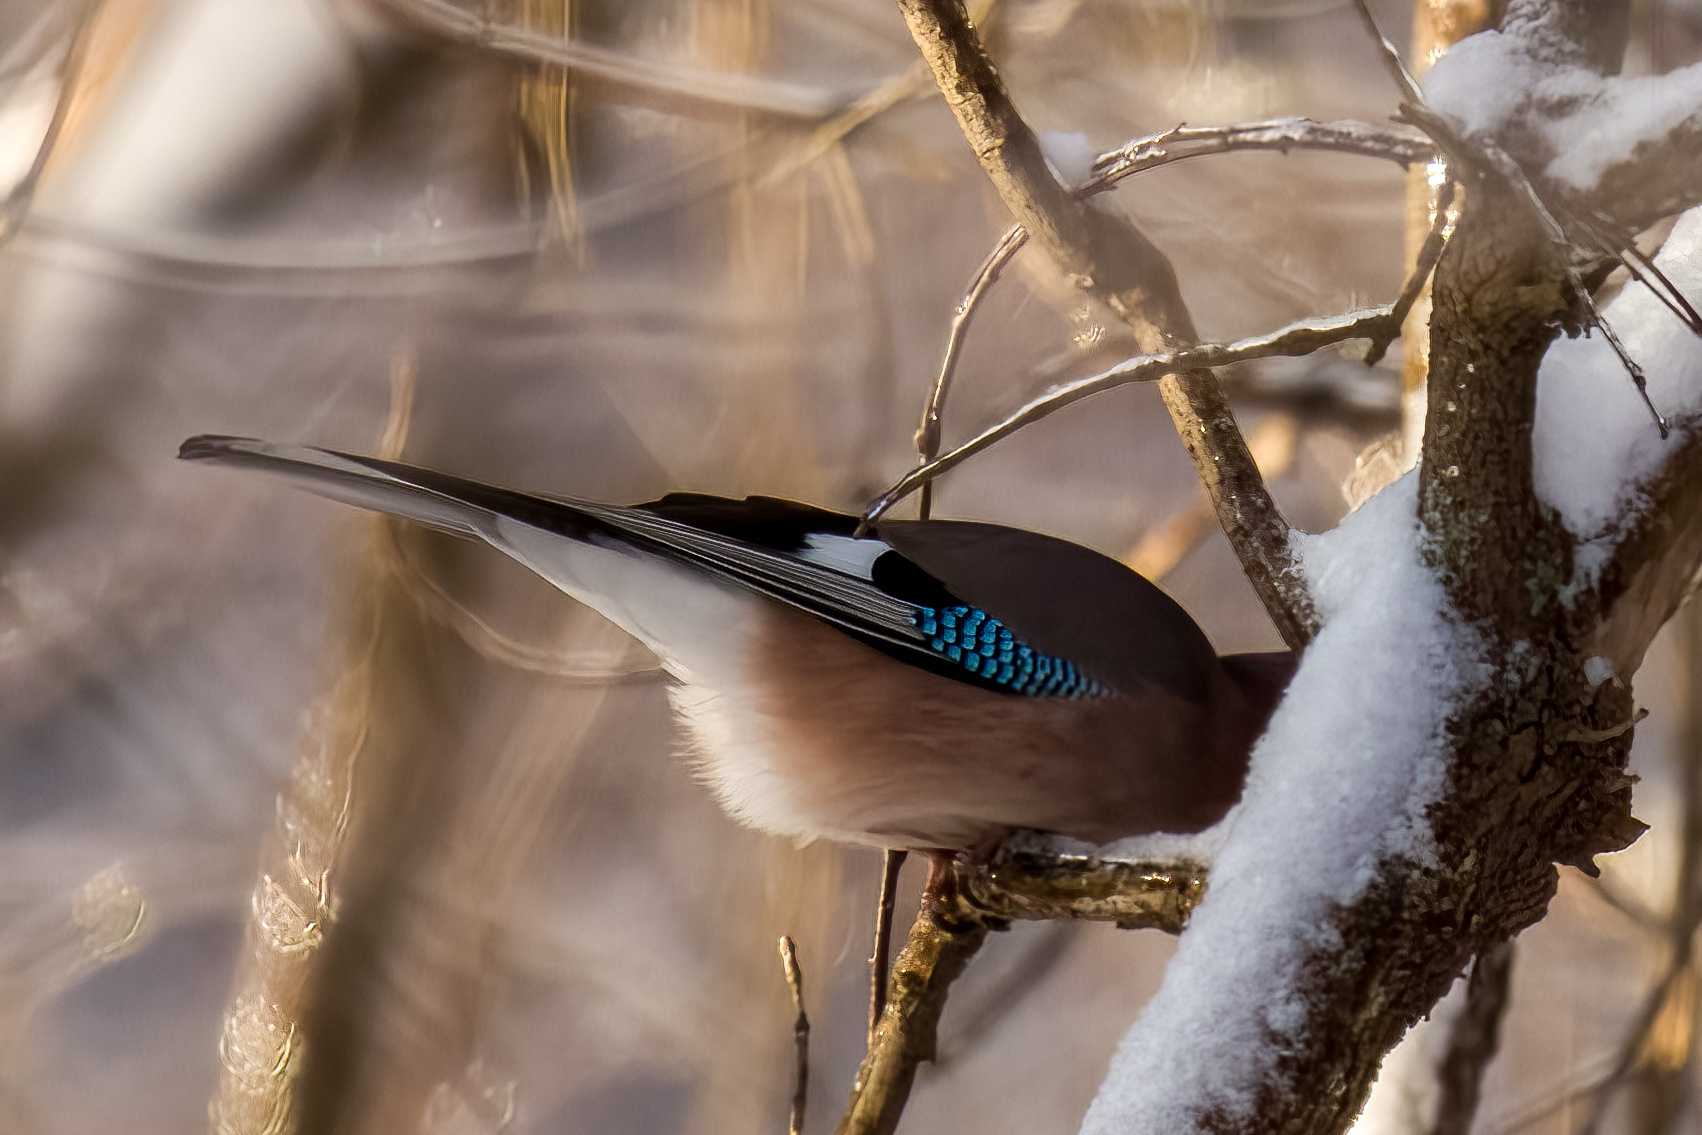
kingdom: Animalia
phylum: Chordata
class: Aves
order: Passeriformes
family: Corvidae
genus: Garrulus
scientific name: Garrulus glandarius
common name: Eurasian jay
